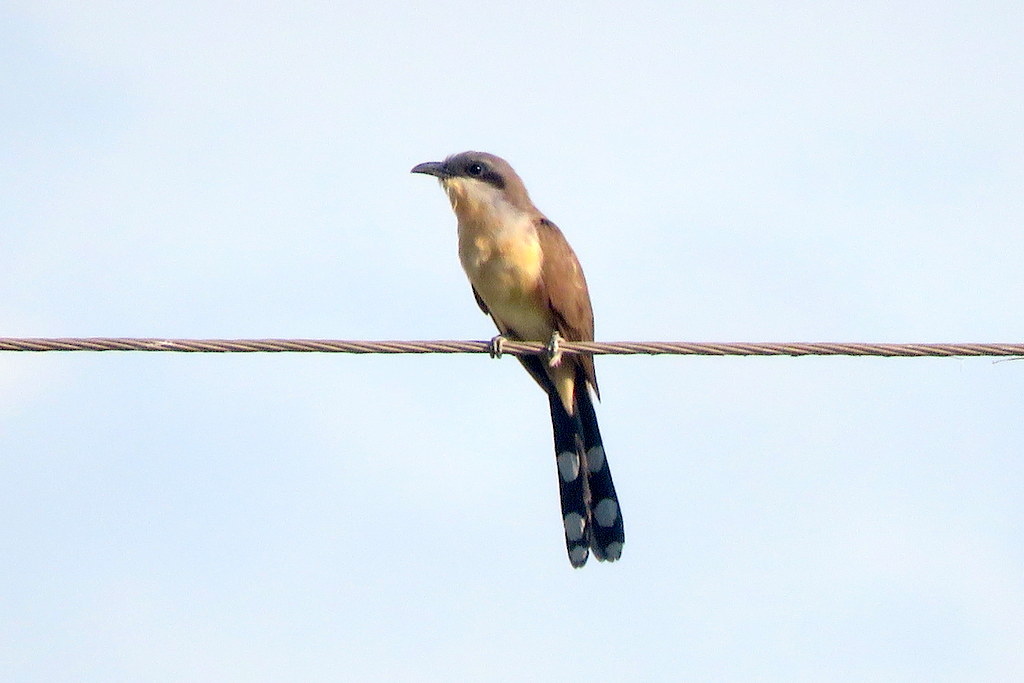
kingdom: Animalia
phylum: Chordata
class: Aves
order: Cuculiformes
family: Cuculidae
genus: Coccyzus
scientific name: Coccyzus melacoryphus
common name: Dark-billed cuckoo
